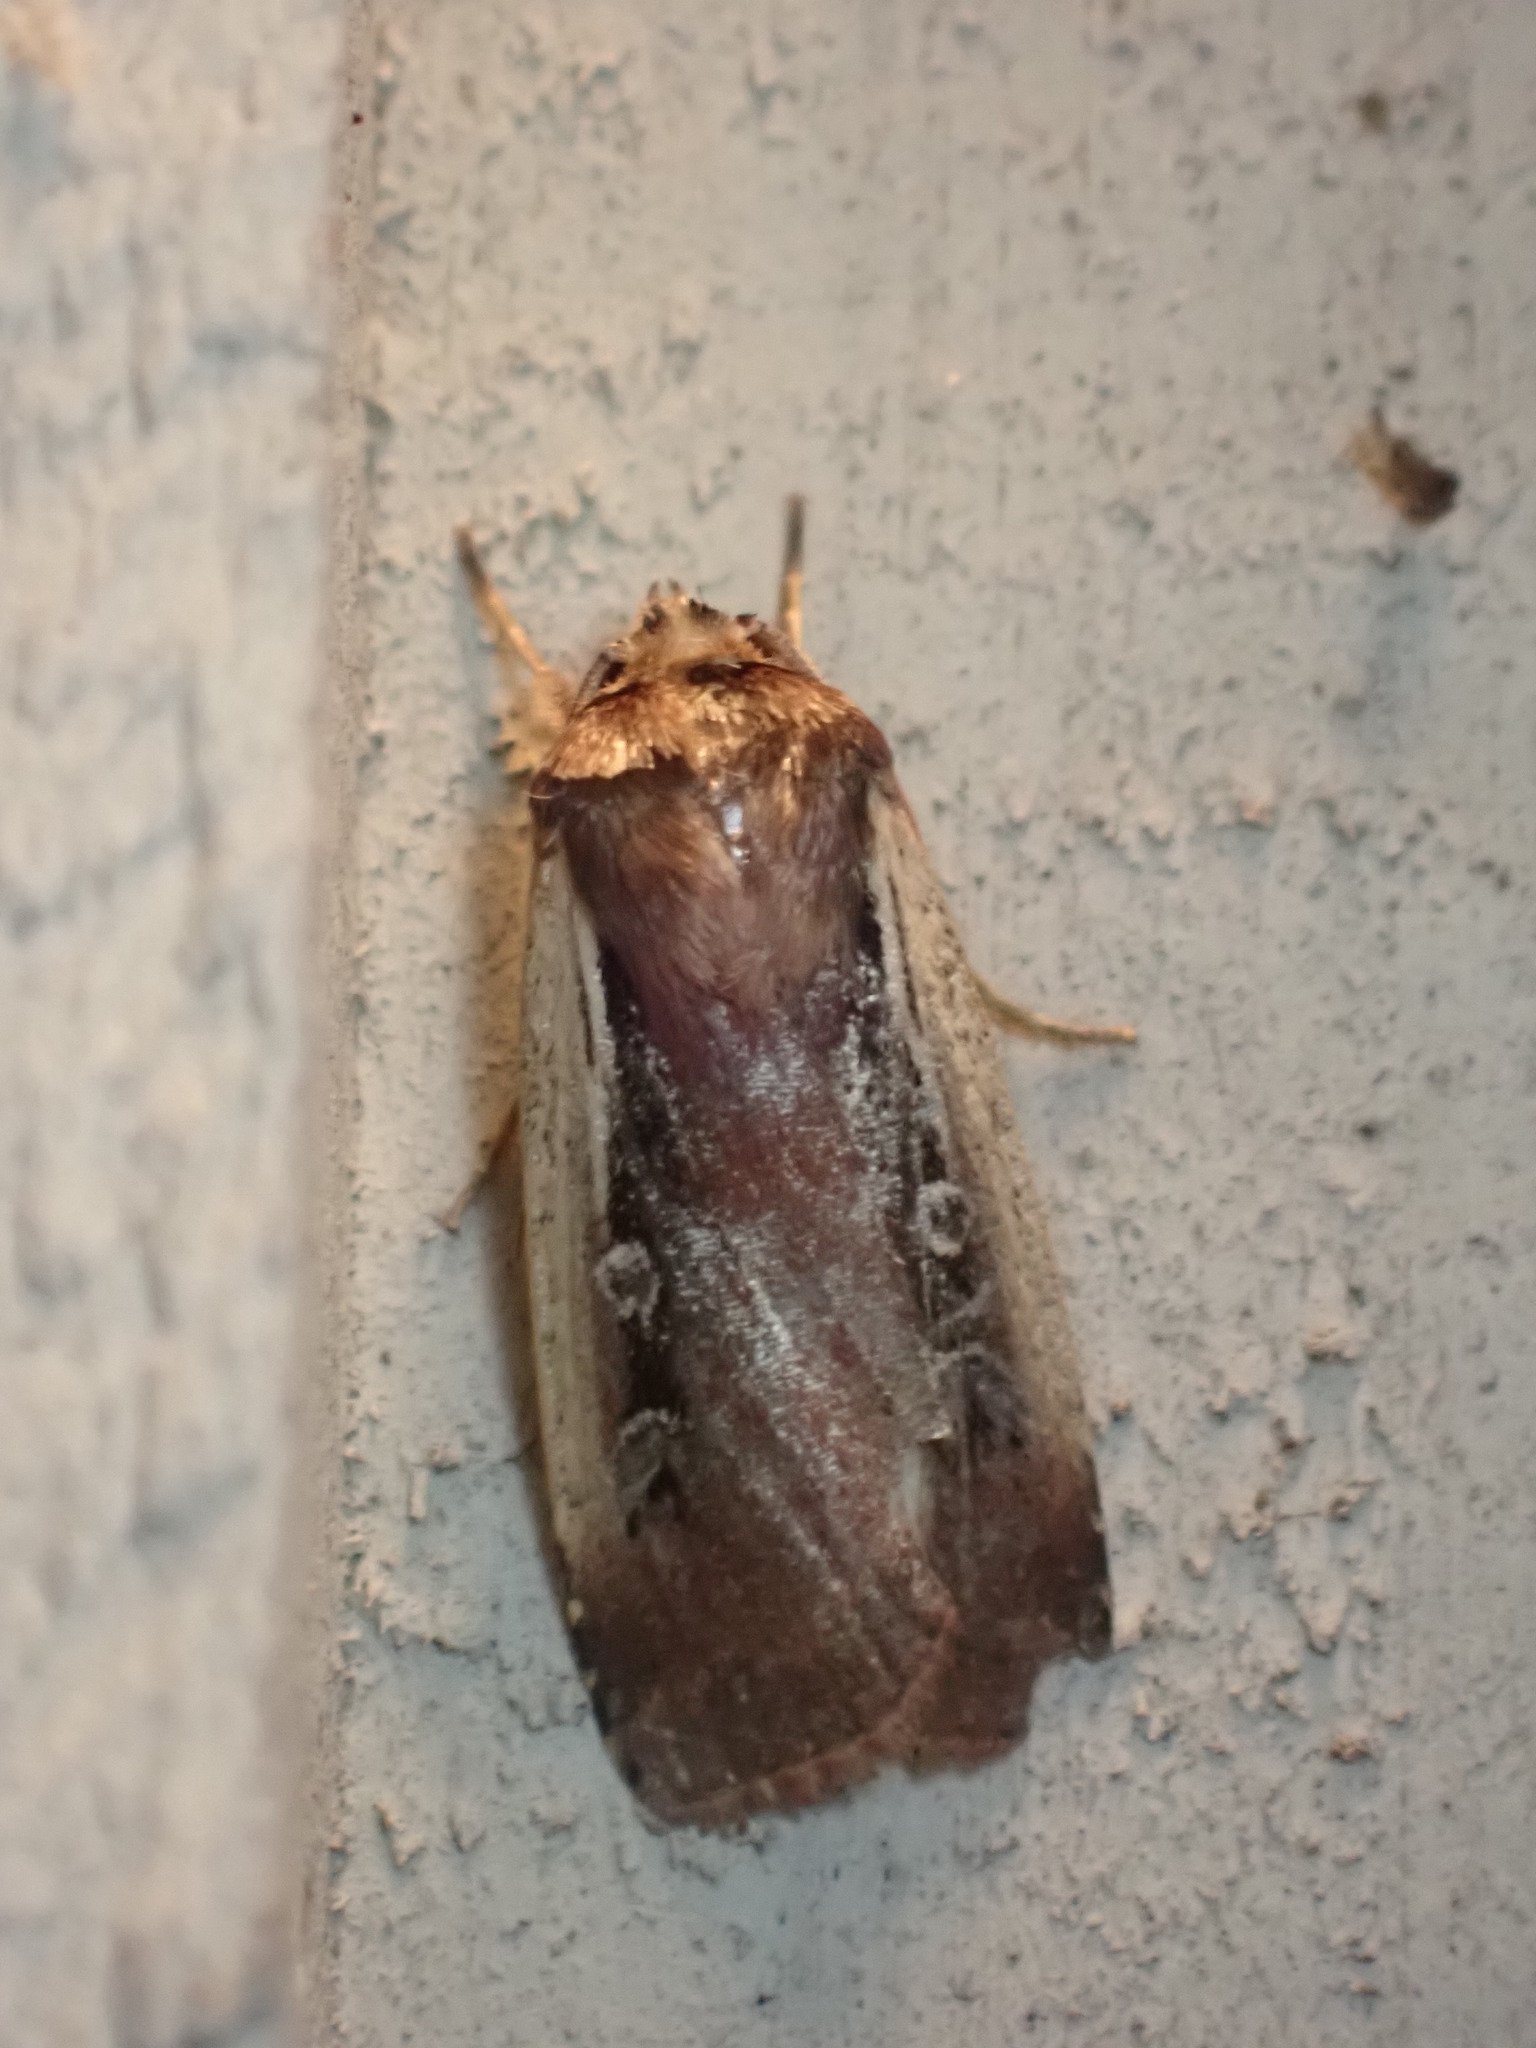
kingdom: Animalia
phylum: Arthropoda
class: Insecta
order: Lepidoptera
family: Noctuidae
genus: Ochropleura
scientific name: Ochropleura implecta
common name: Flame-shouldered dart
